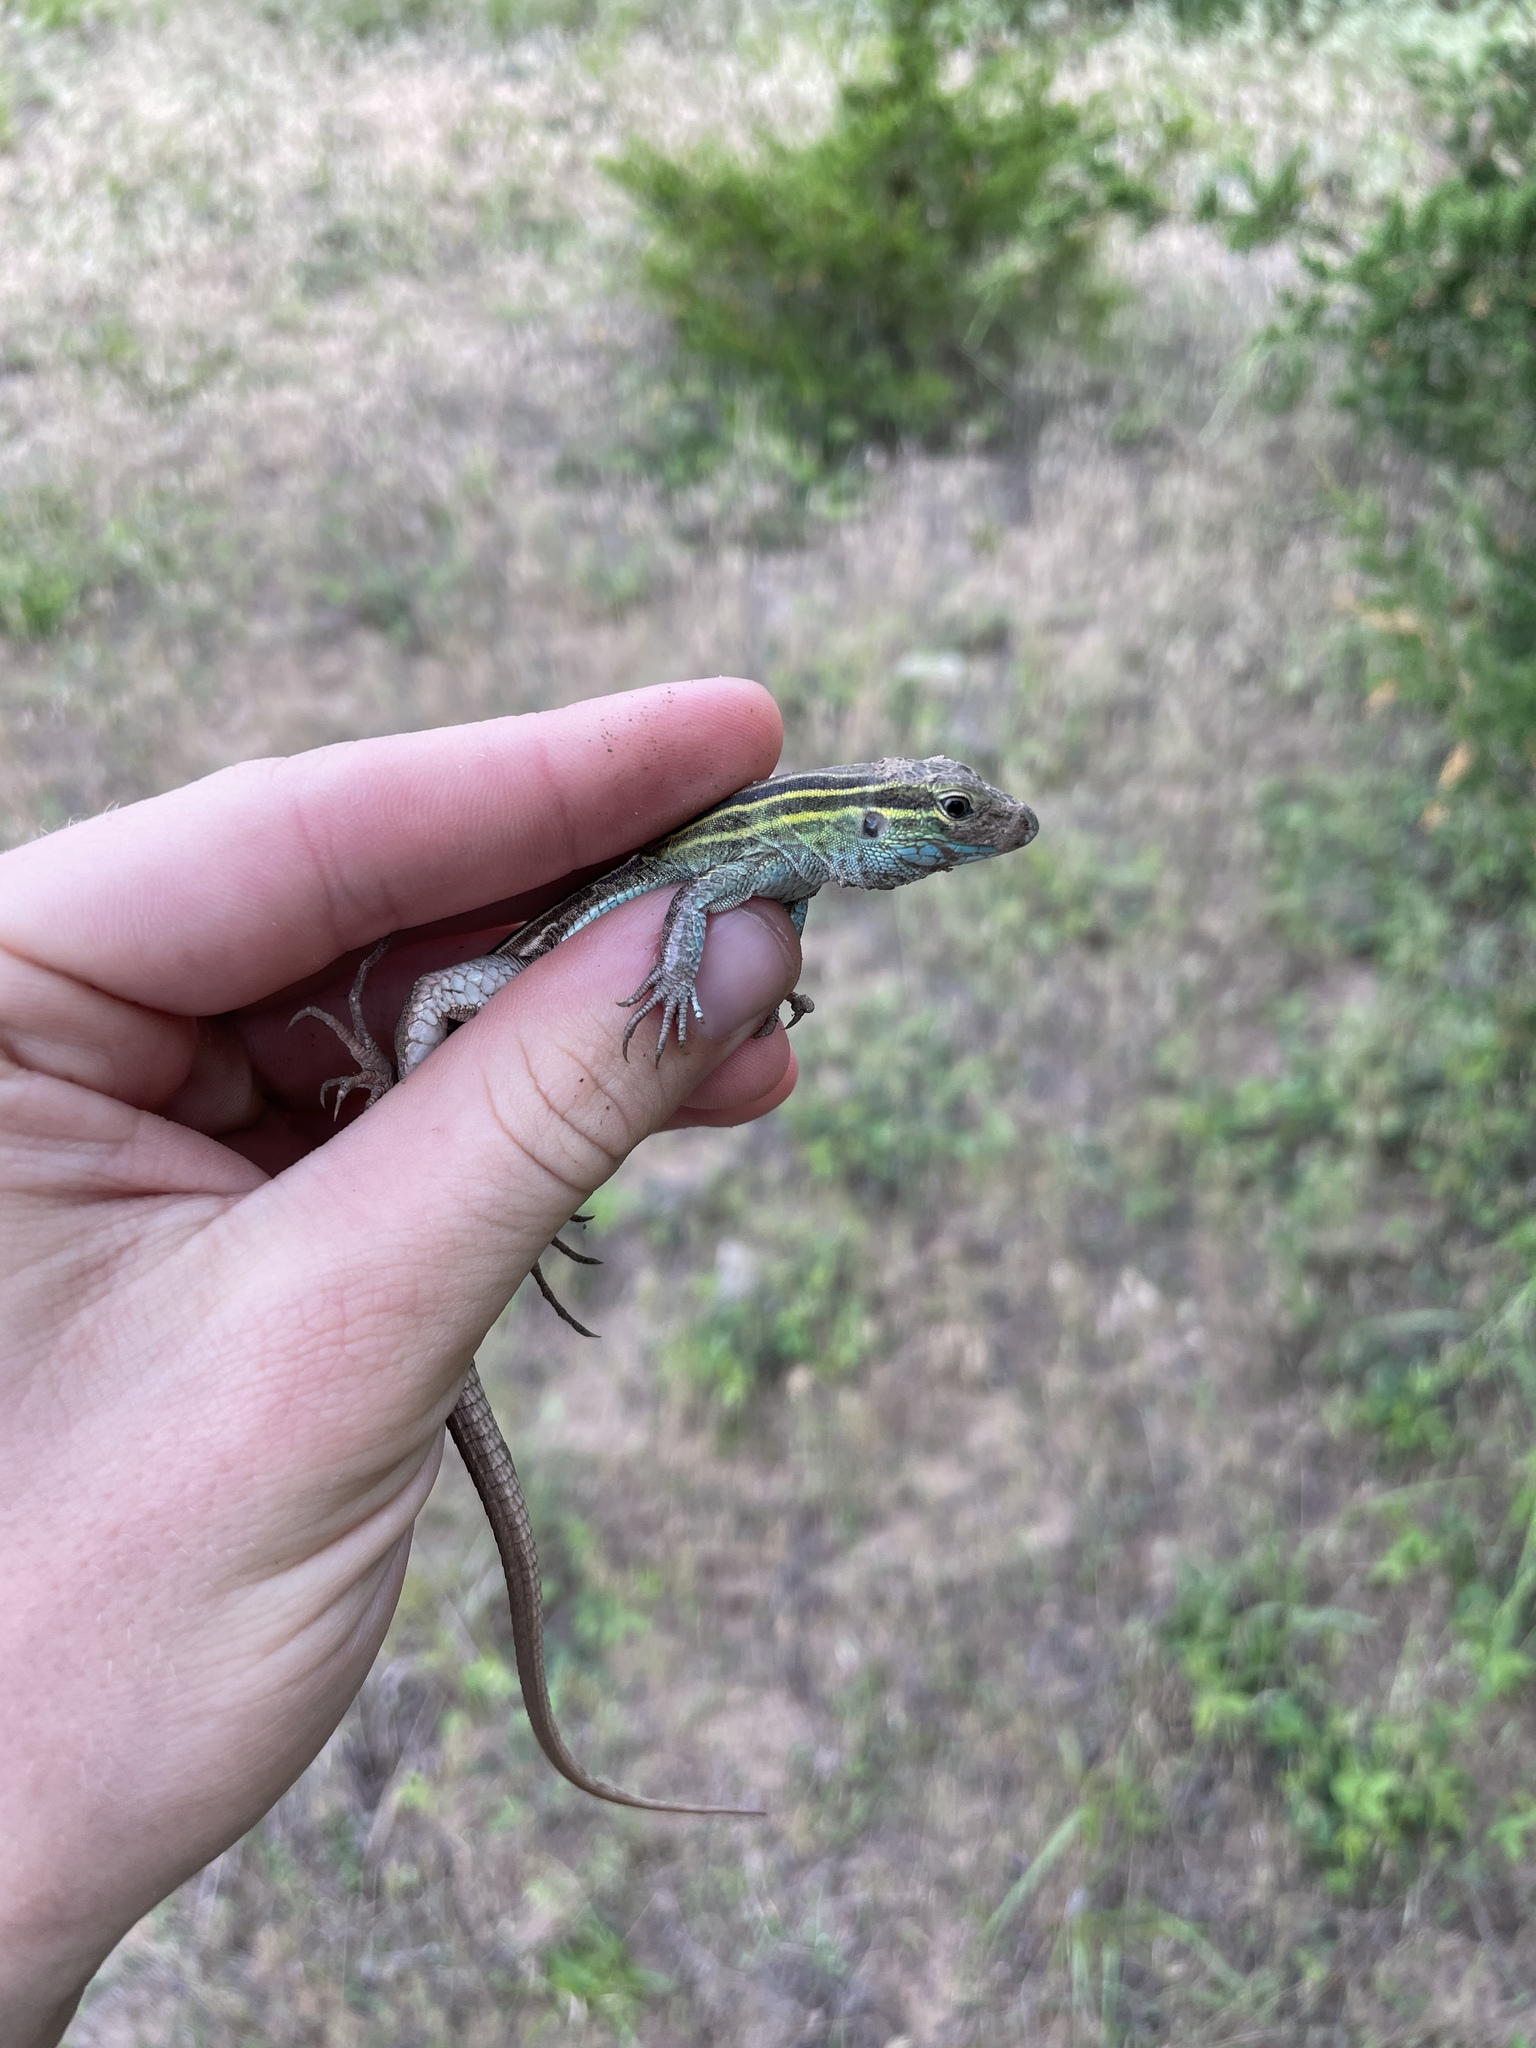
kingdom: Animalia
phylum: Chordata
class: Squamata
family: Teiidae
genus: Aspidoscelis
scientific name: Aspidoscelis sexlineatus
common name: Six-lined racerunner
